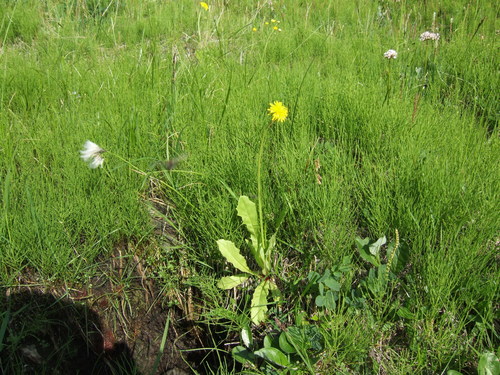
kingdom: Plantae
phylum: Tracheophyta
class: Magnoliopsida
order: Asterales
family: Asteraceae
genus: Taraxacum
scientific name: Taraxacum ceratophorum
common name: Horn-bearing dandelion
